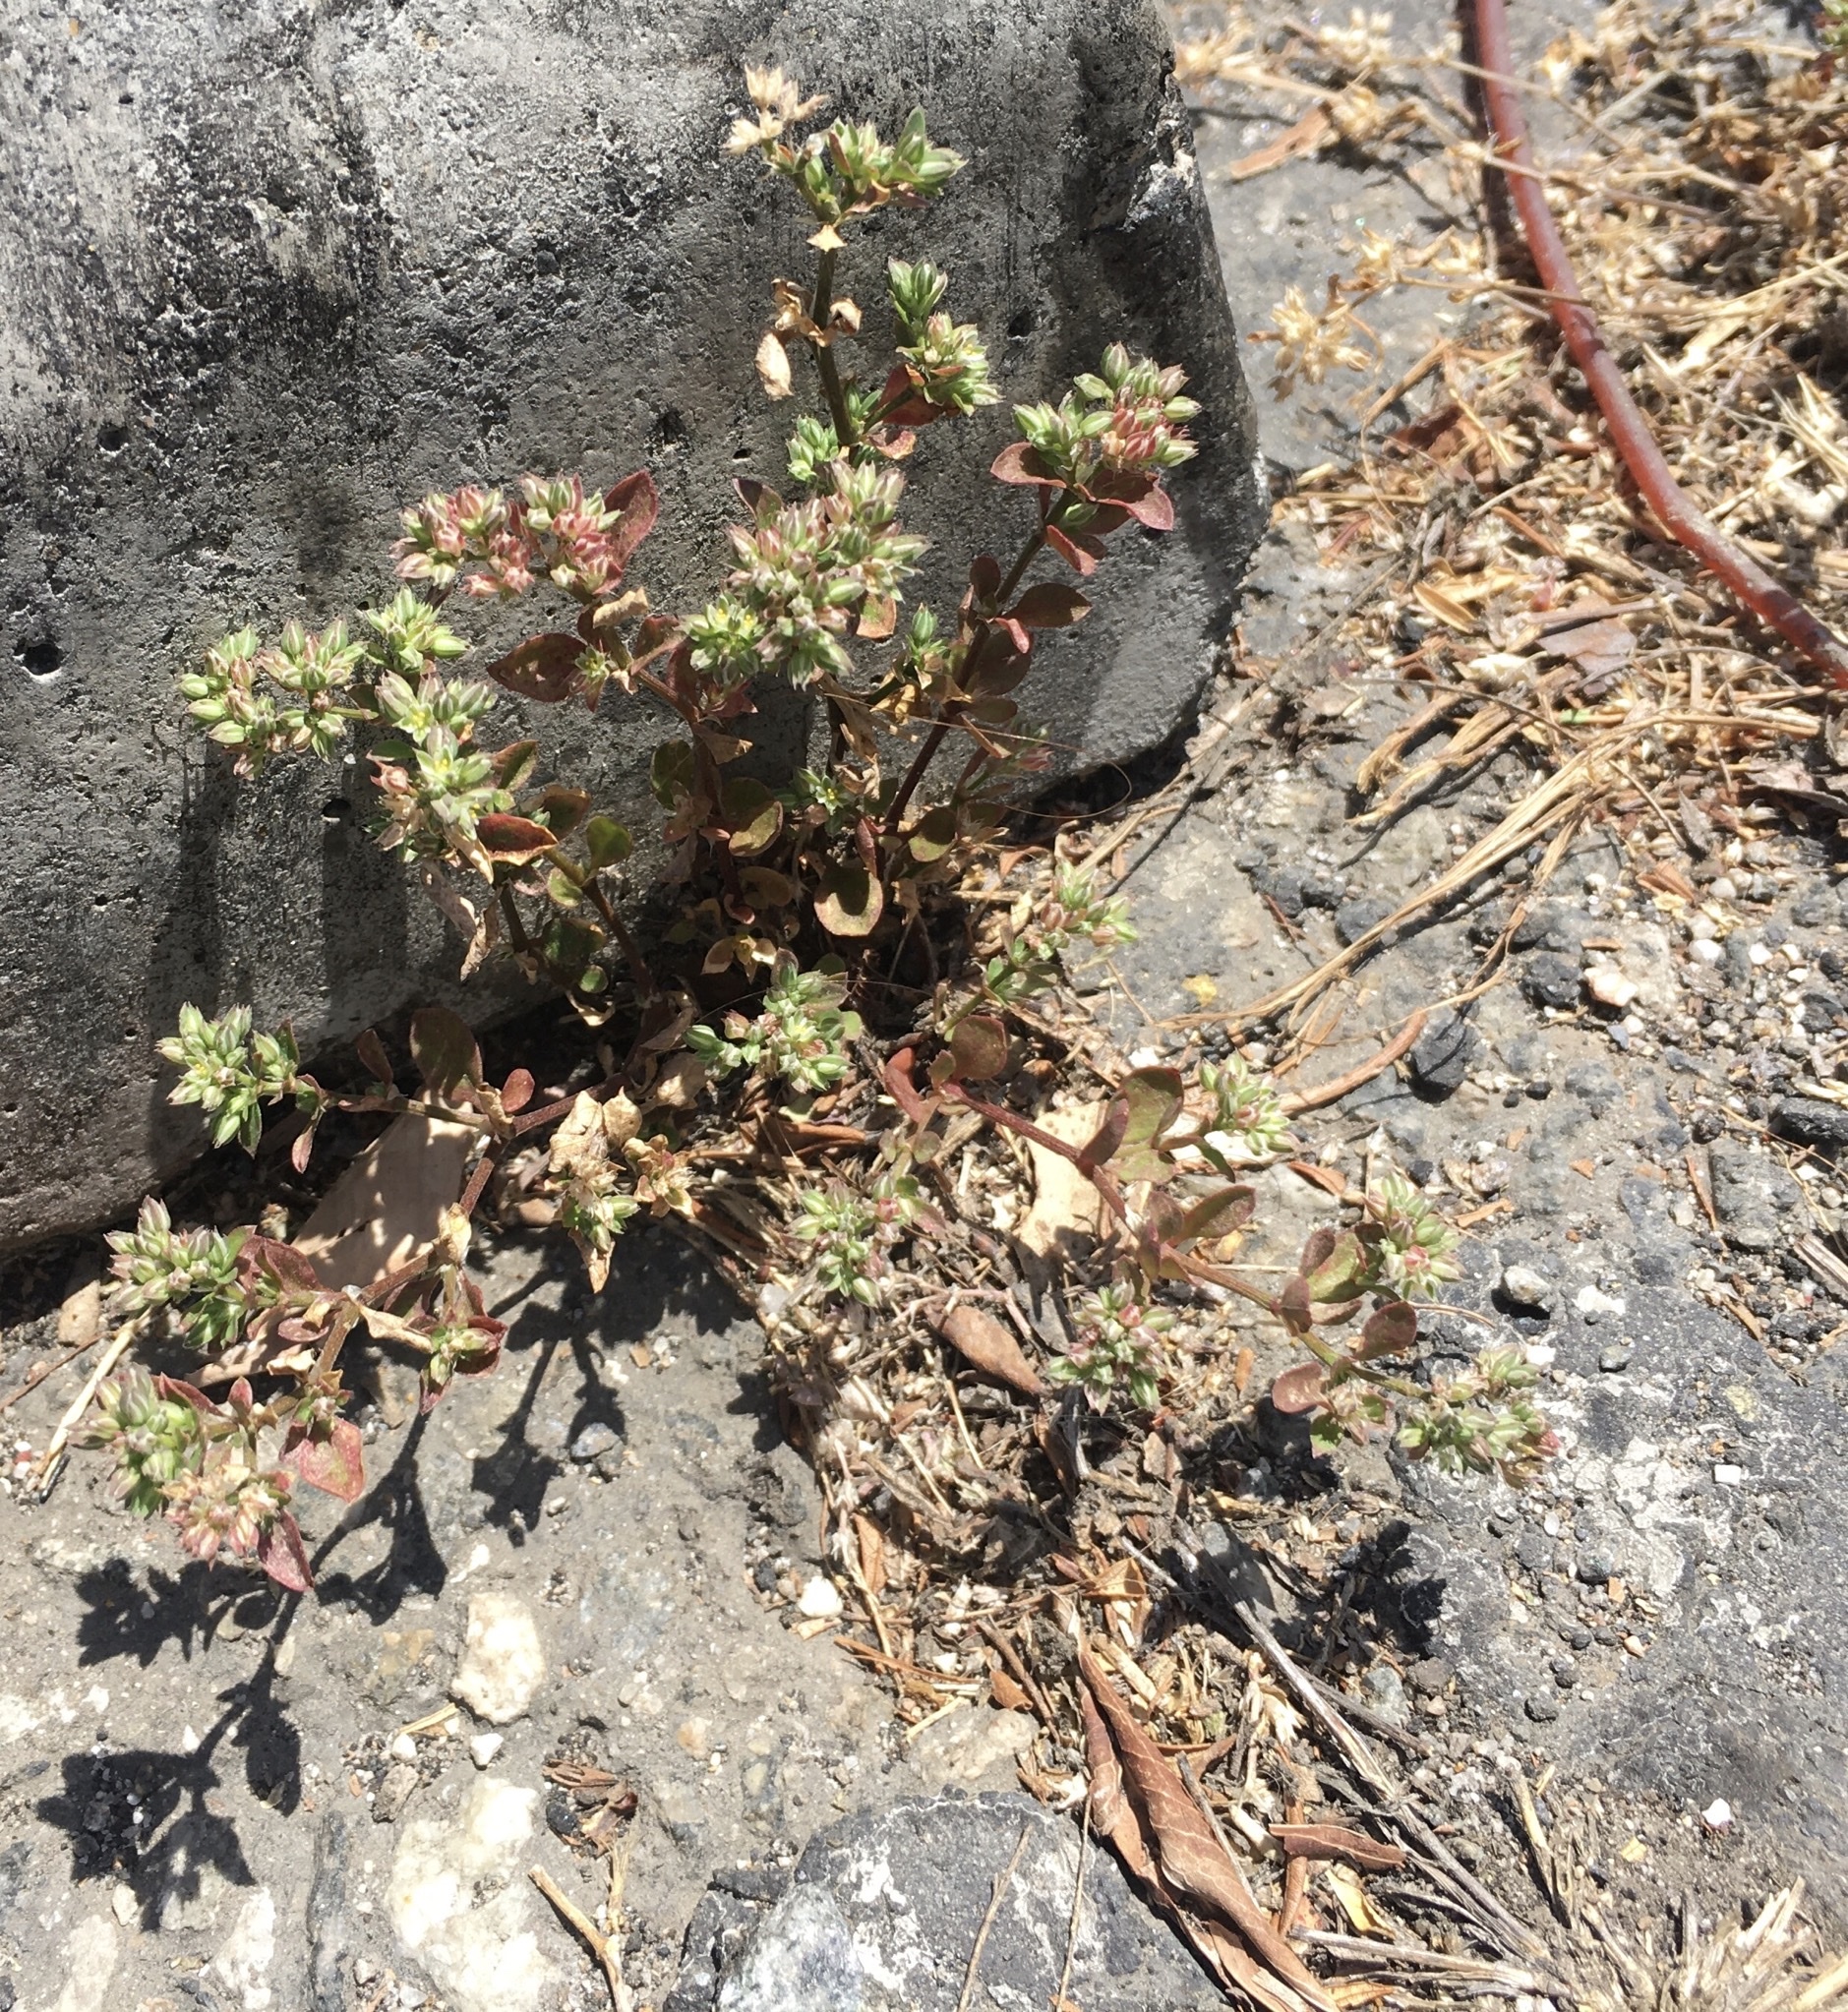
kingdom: Plantae
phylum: Tracheophyta
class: Magnoliopsida
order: Caryophyllales
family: Caryophyllaceae
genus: Polycarpon
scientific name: Polycarpon tetraphyllum
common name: Four-leaved all-seed
